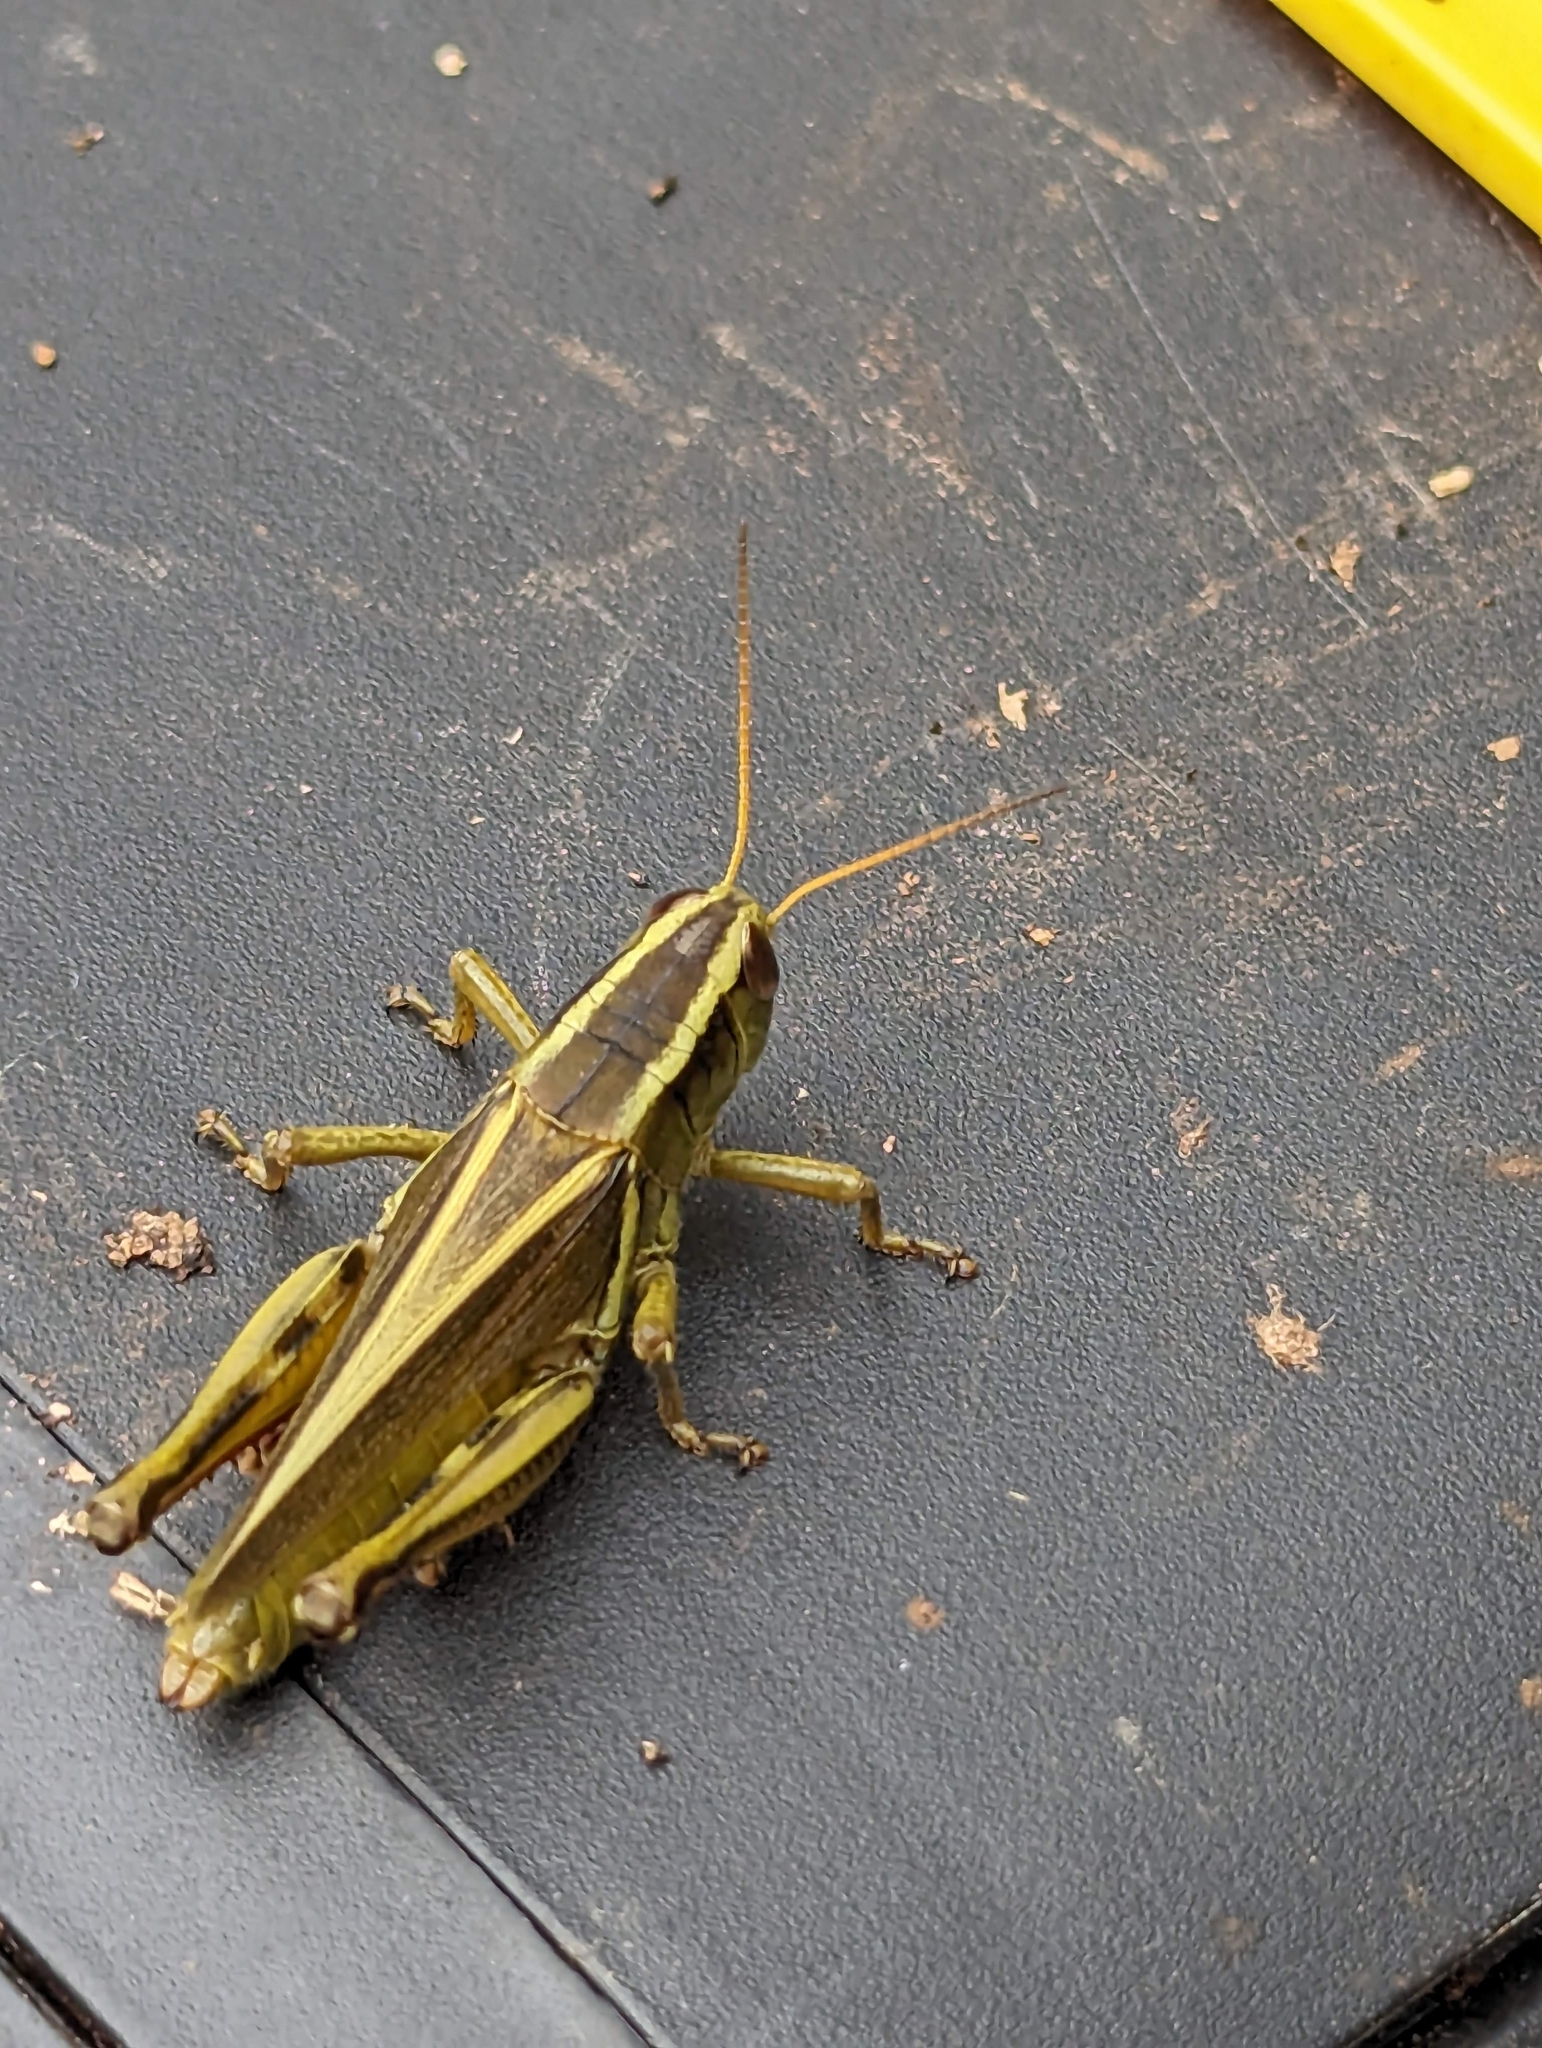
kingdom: Animalia
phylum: Arthropoda
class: Insecta
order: Orthoptera
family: Acrididae
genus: Melanoplus
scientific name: Melanoplus bivittatus
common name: Two-striped grasshopper
